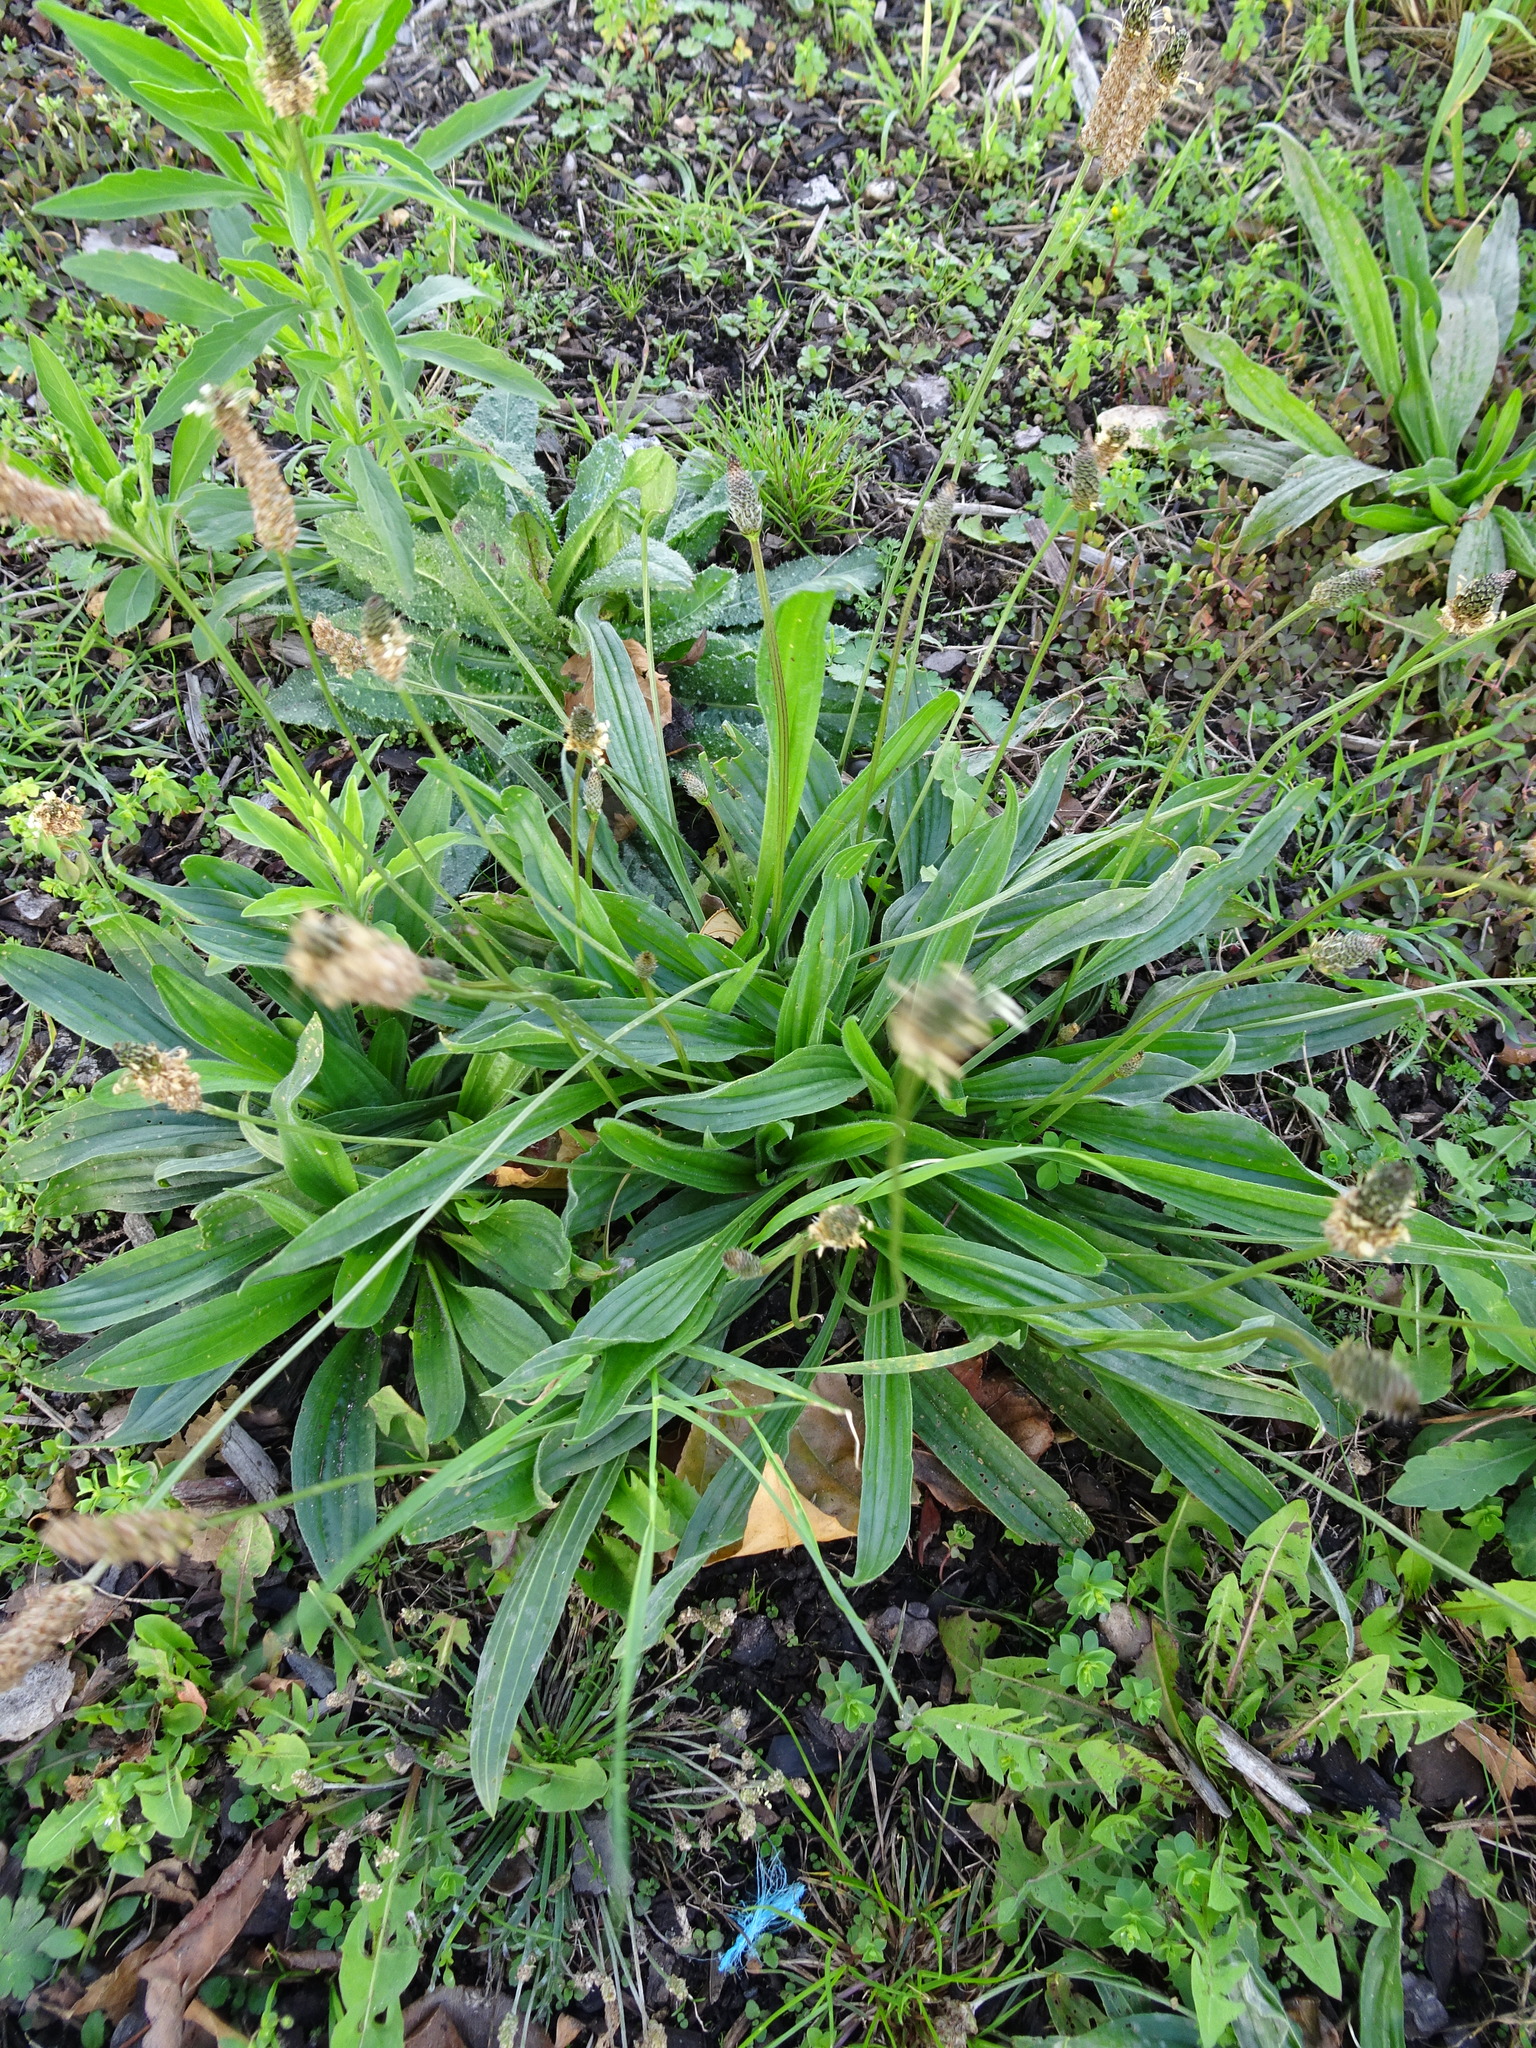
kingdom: Plantae
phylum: Tracheophyta
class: Magnoliopsida
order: Lamiales
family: Plantaginaceae
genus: Plantago
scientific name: Plantago lanceolata
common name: Ribwort plantain
